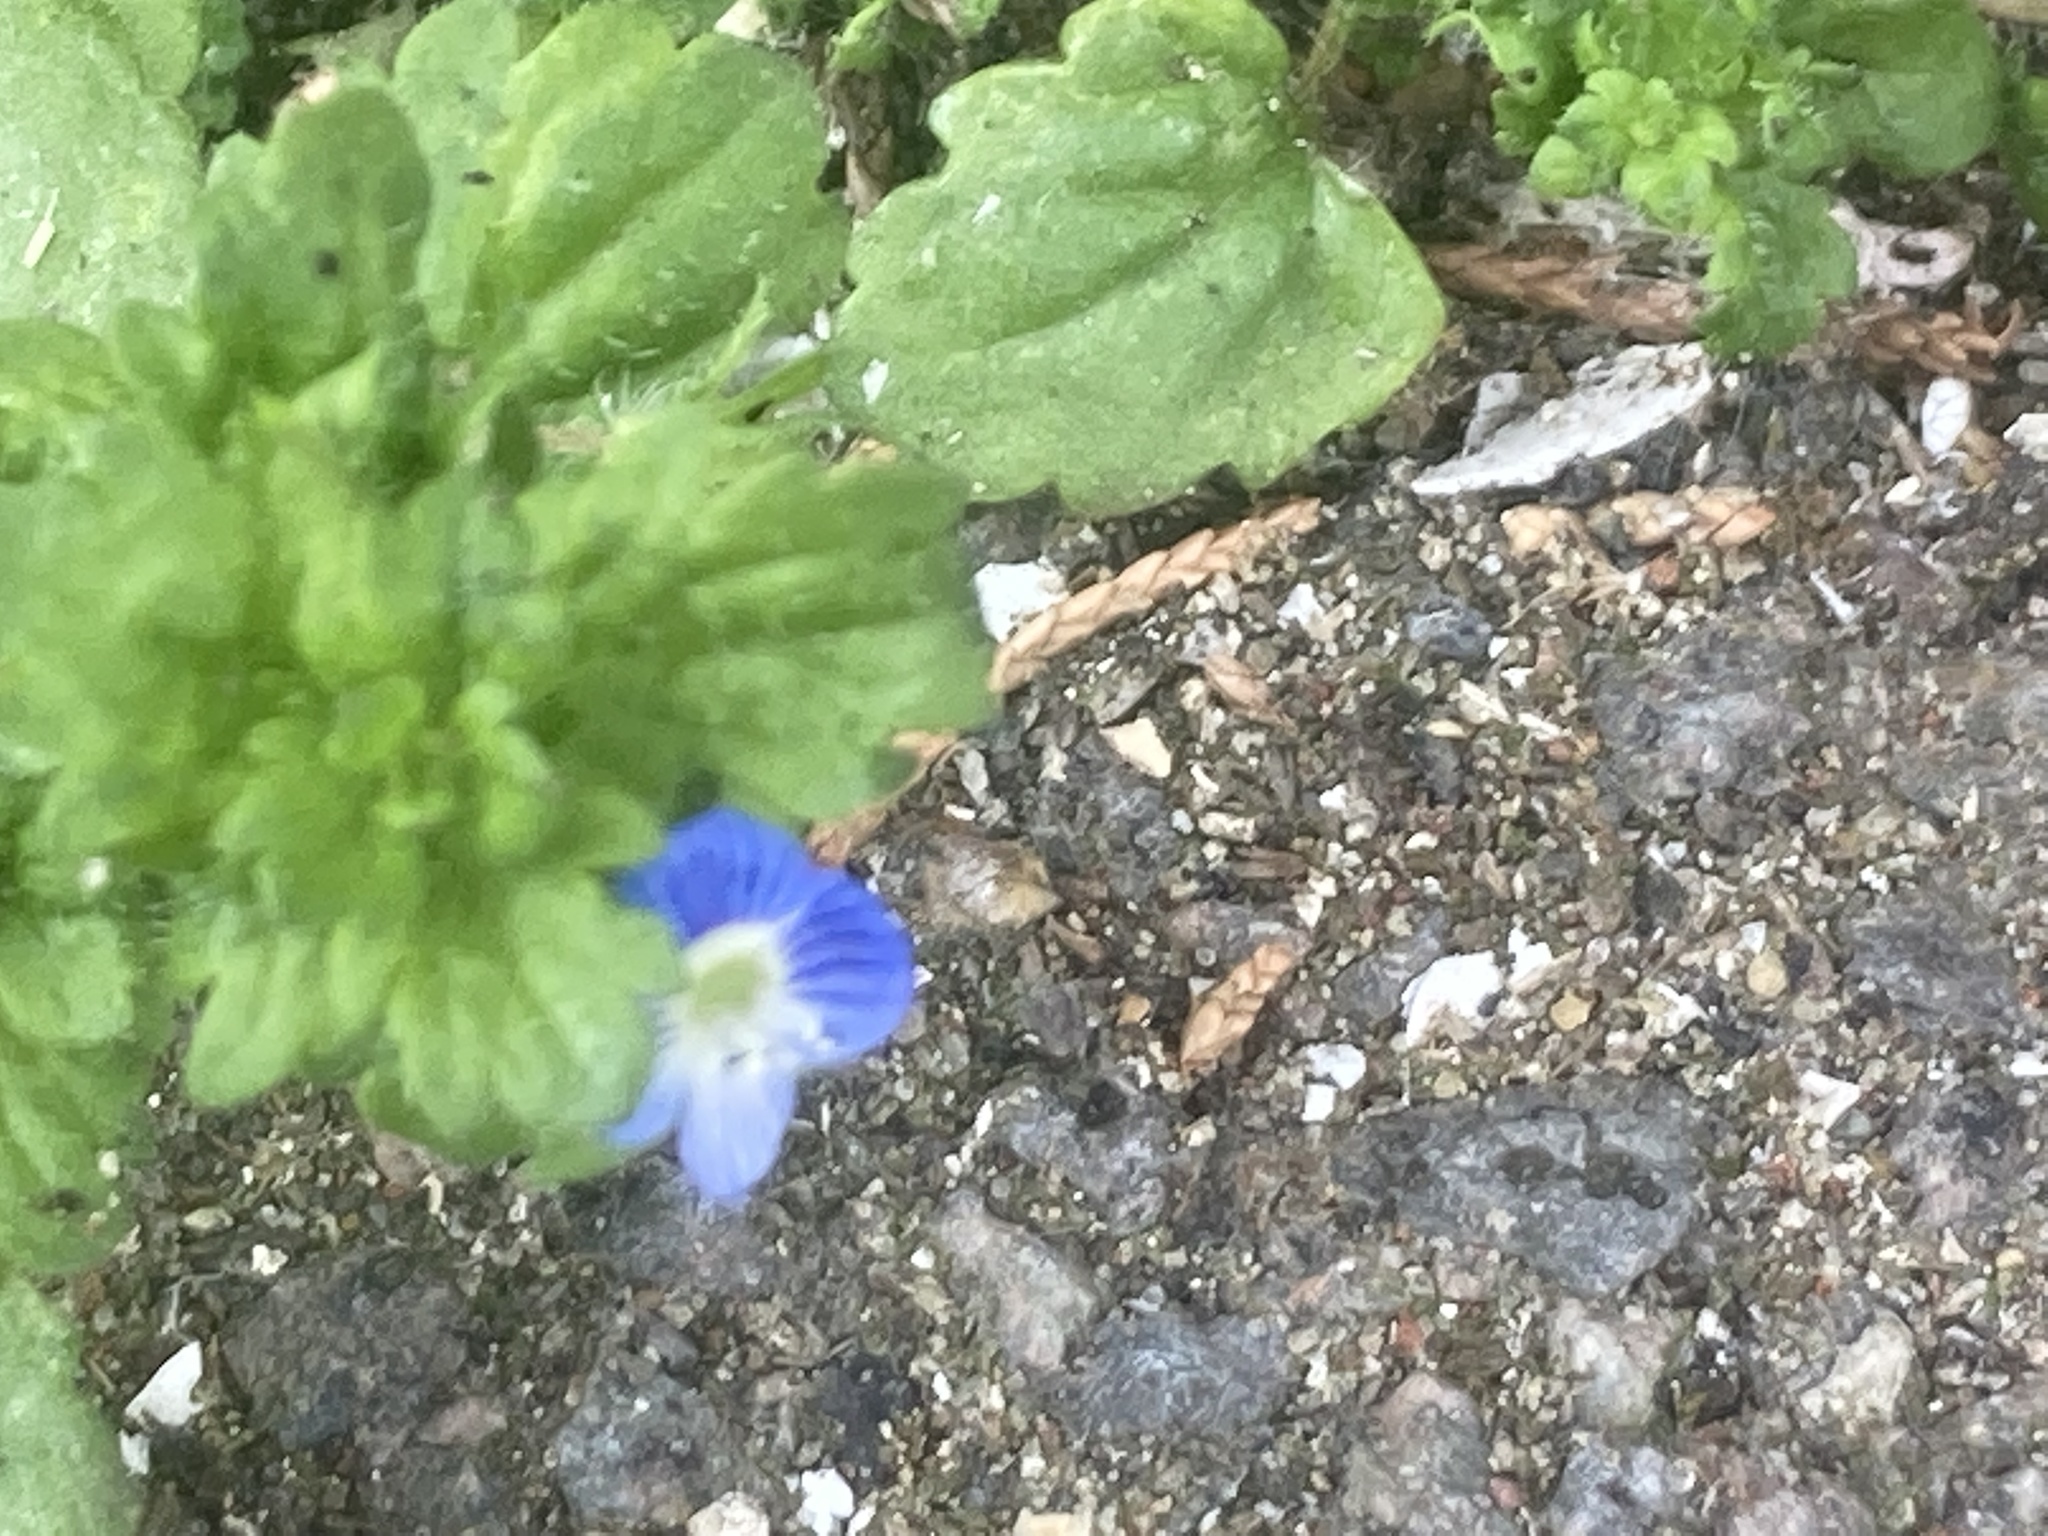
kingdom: Plantae
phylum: Tracheophyta
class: Magnoliopsida
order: Lamiales
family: Plantaginaceae
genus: Veronica
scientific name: Veronica persica
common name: Common field-speedwell
